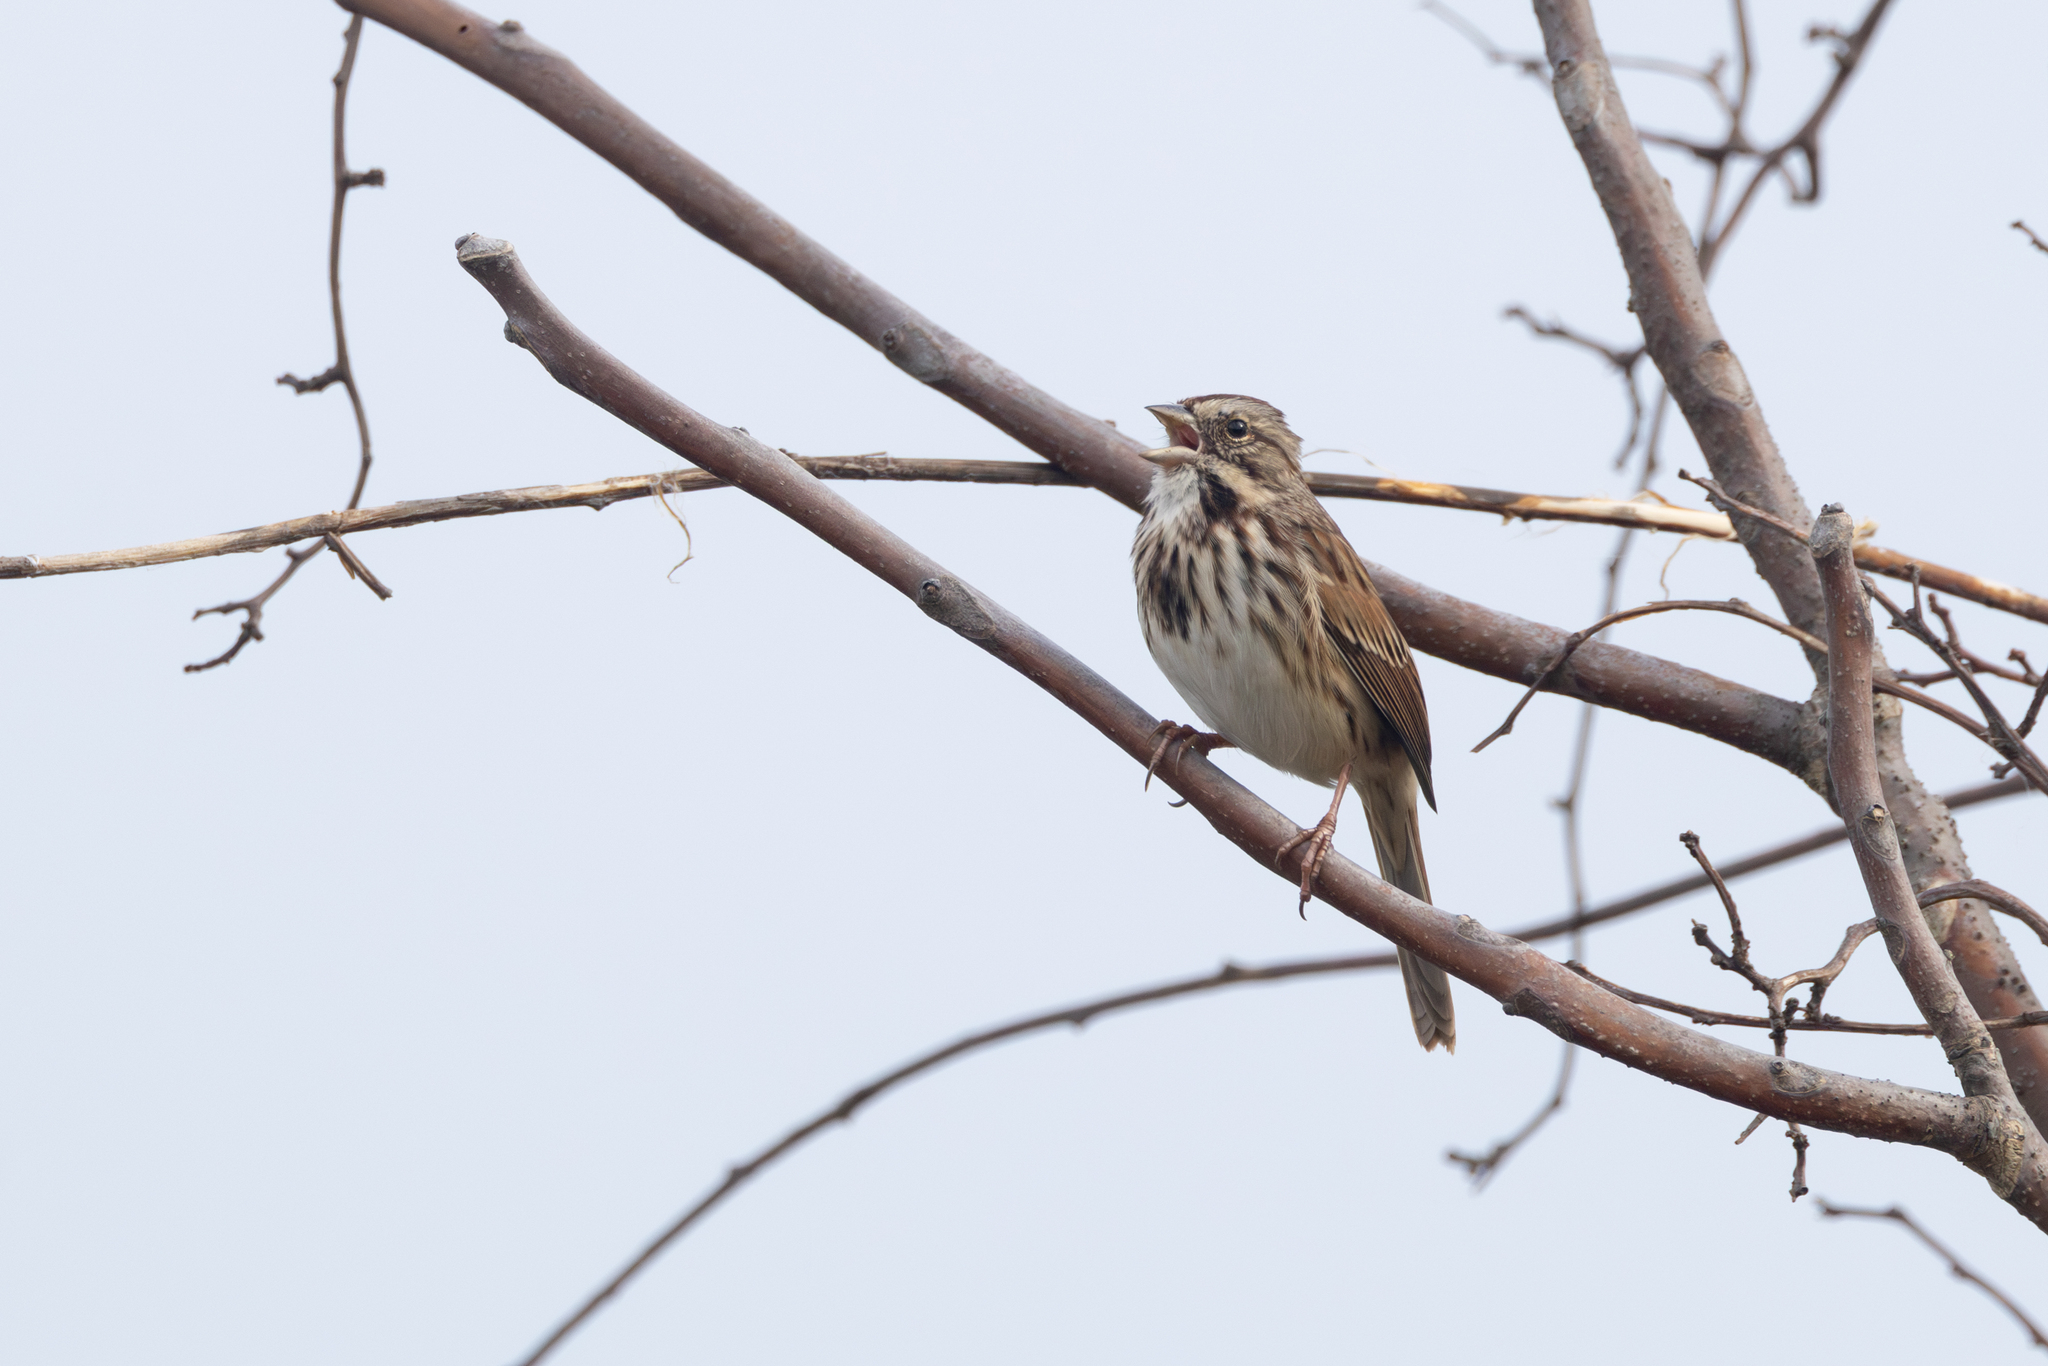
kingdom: Animalia
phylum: Chordata
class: Aves
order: Passeriformes
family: Passerellidae
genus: Melospiza
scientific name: Melospiza melodia
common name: Song sparrow
